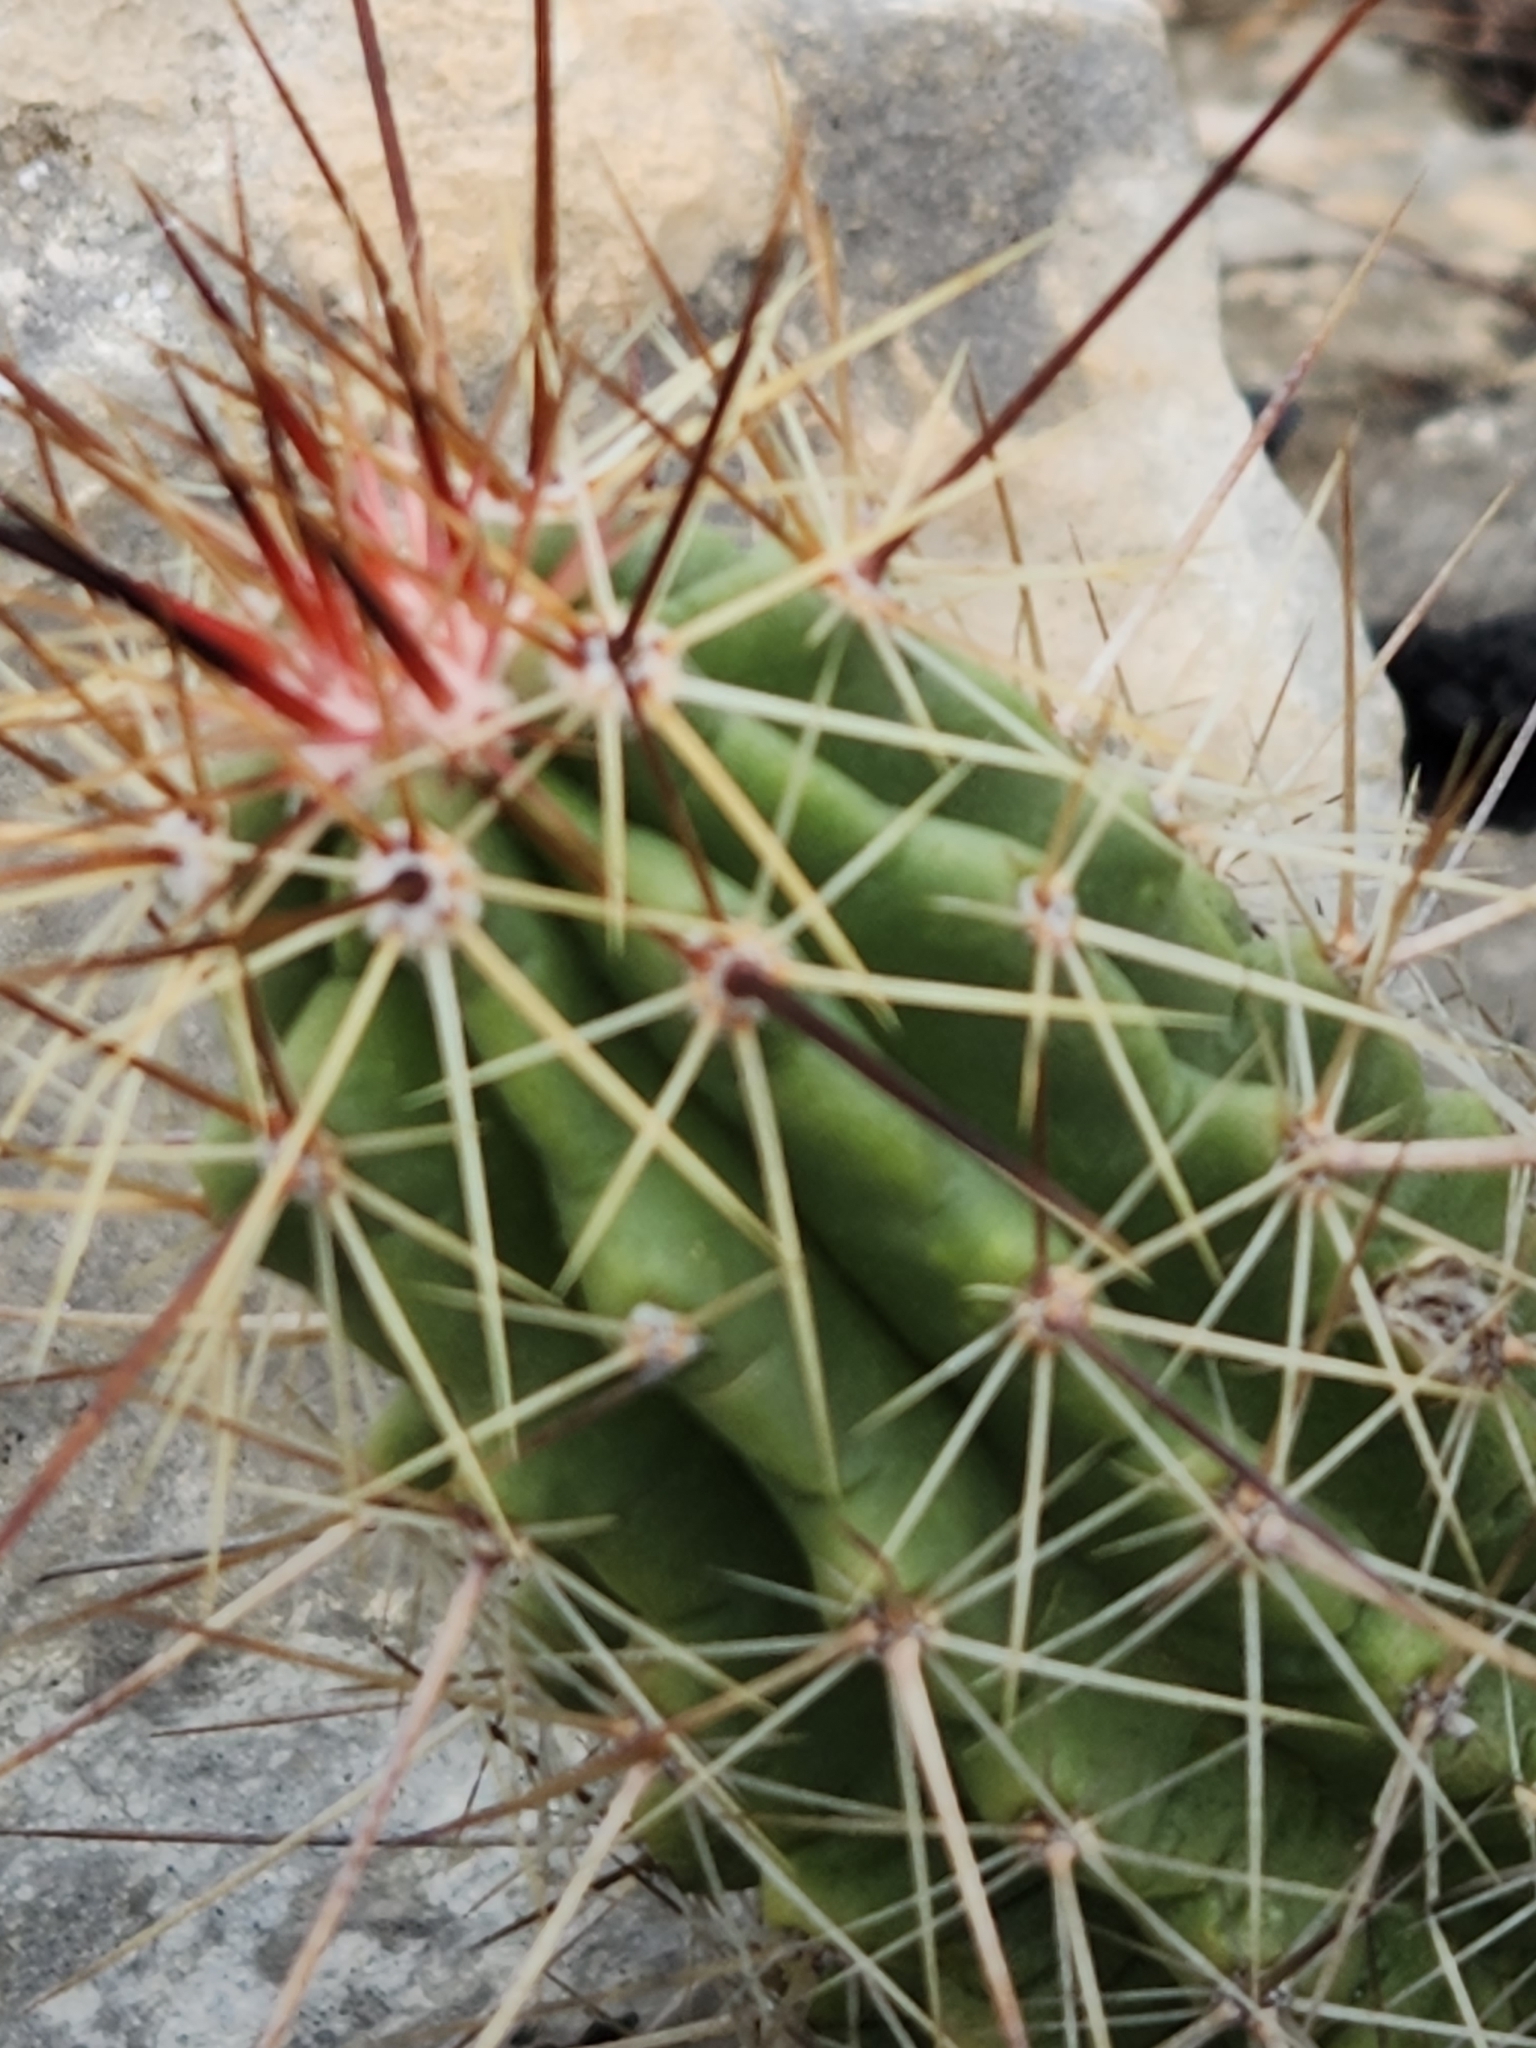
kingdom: Plantae
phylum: Tracheophyta
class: Magnoliopsida
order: Caryophyllales
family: Cactaceae
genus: Echinocereus
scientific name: Echinocereus enneacanthus
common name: Pitaya
